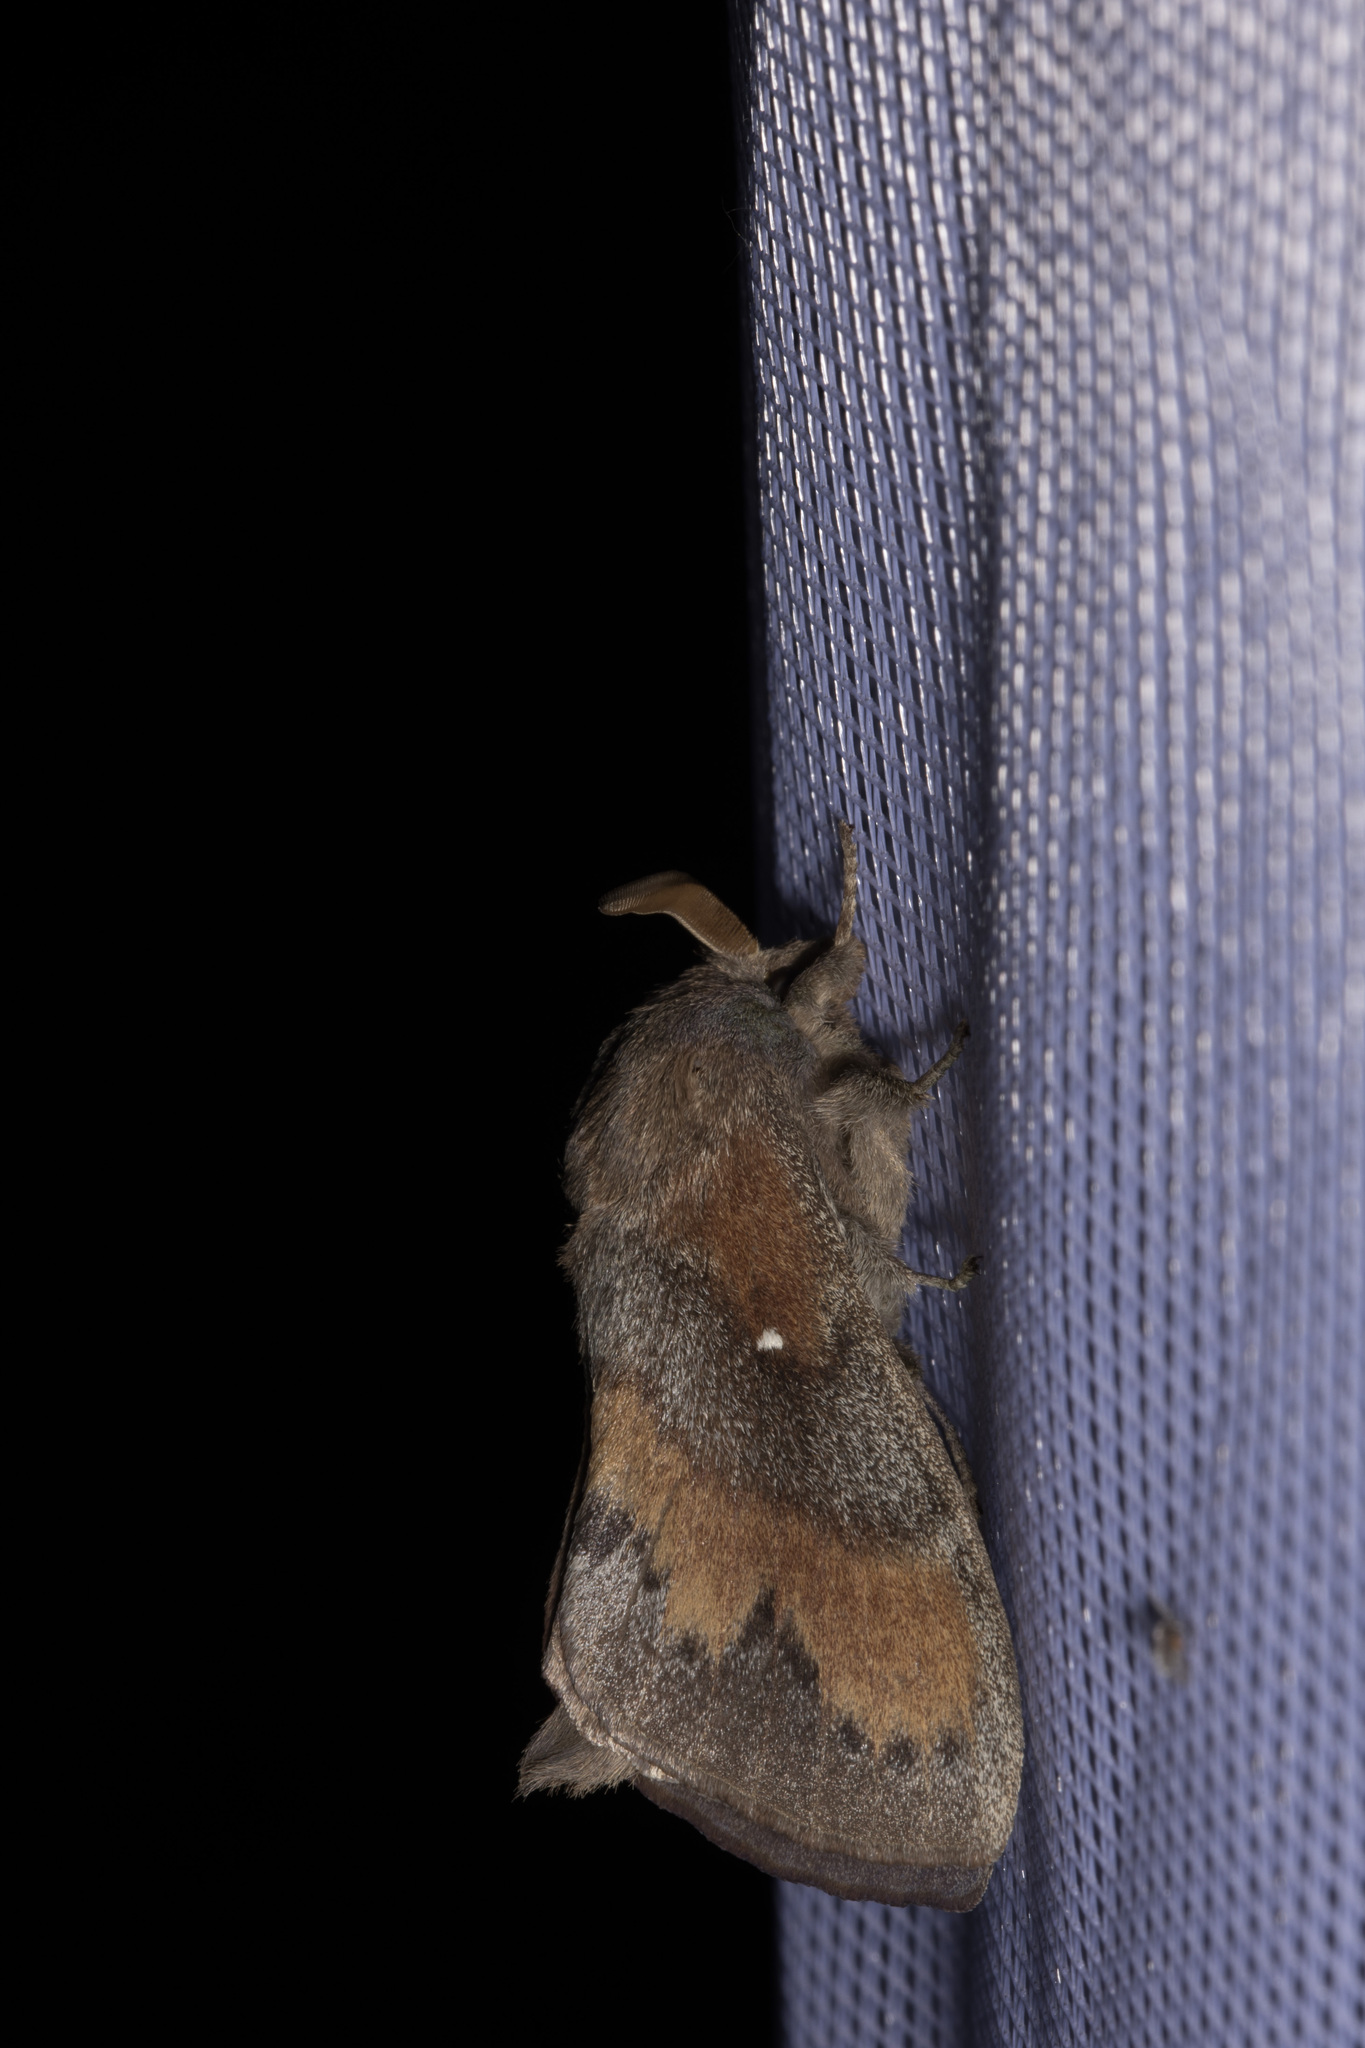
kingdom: Animalia
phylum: Arthropoda
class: Insecta
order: Lepidoptera
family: Lasiocampidae
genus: Dendrolimus
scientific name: Dendrolimus pini
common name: Pine-tree lappet
